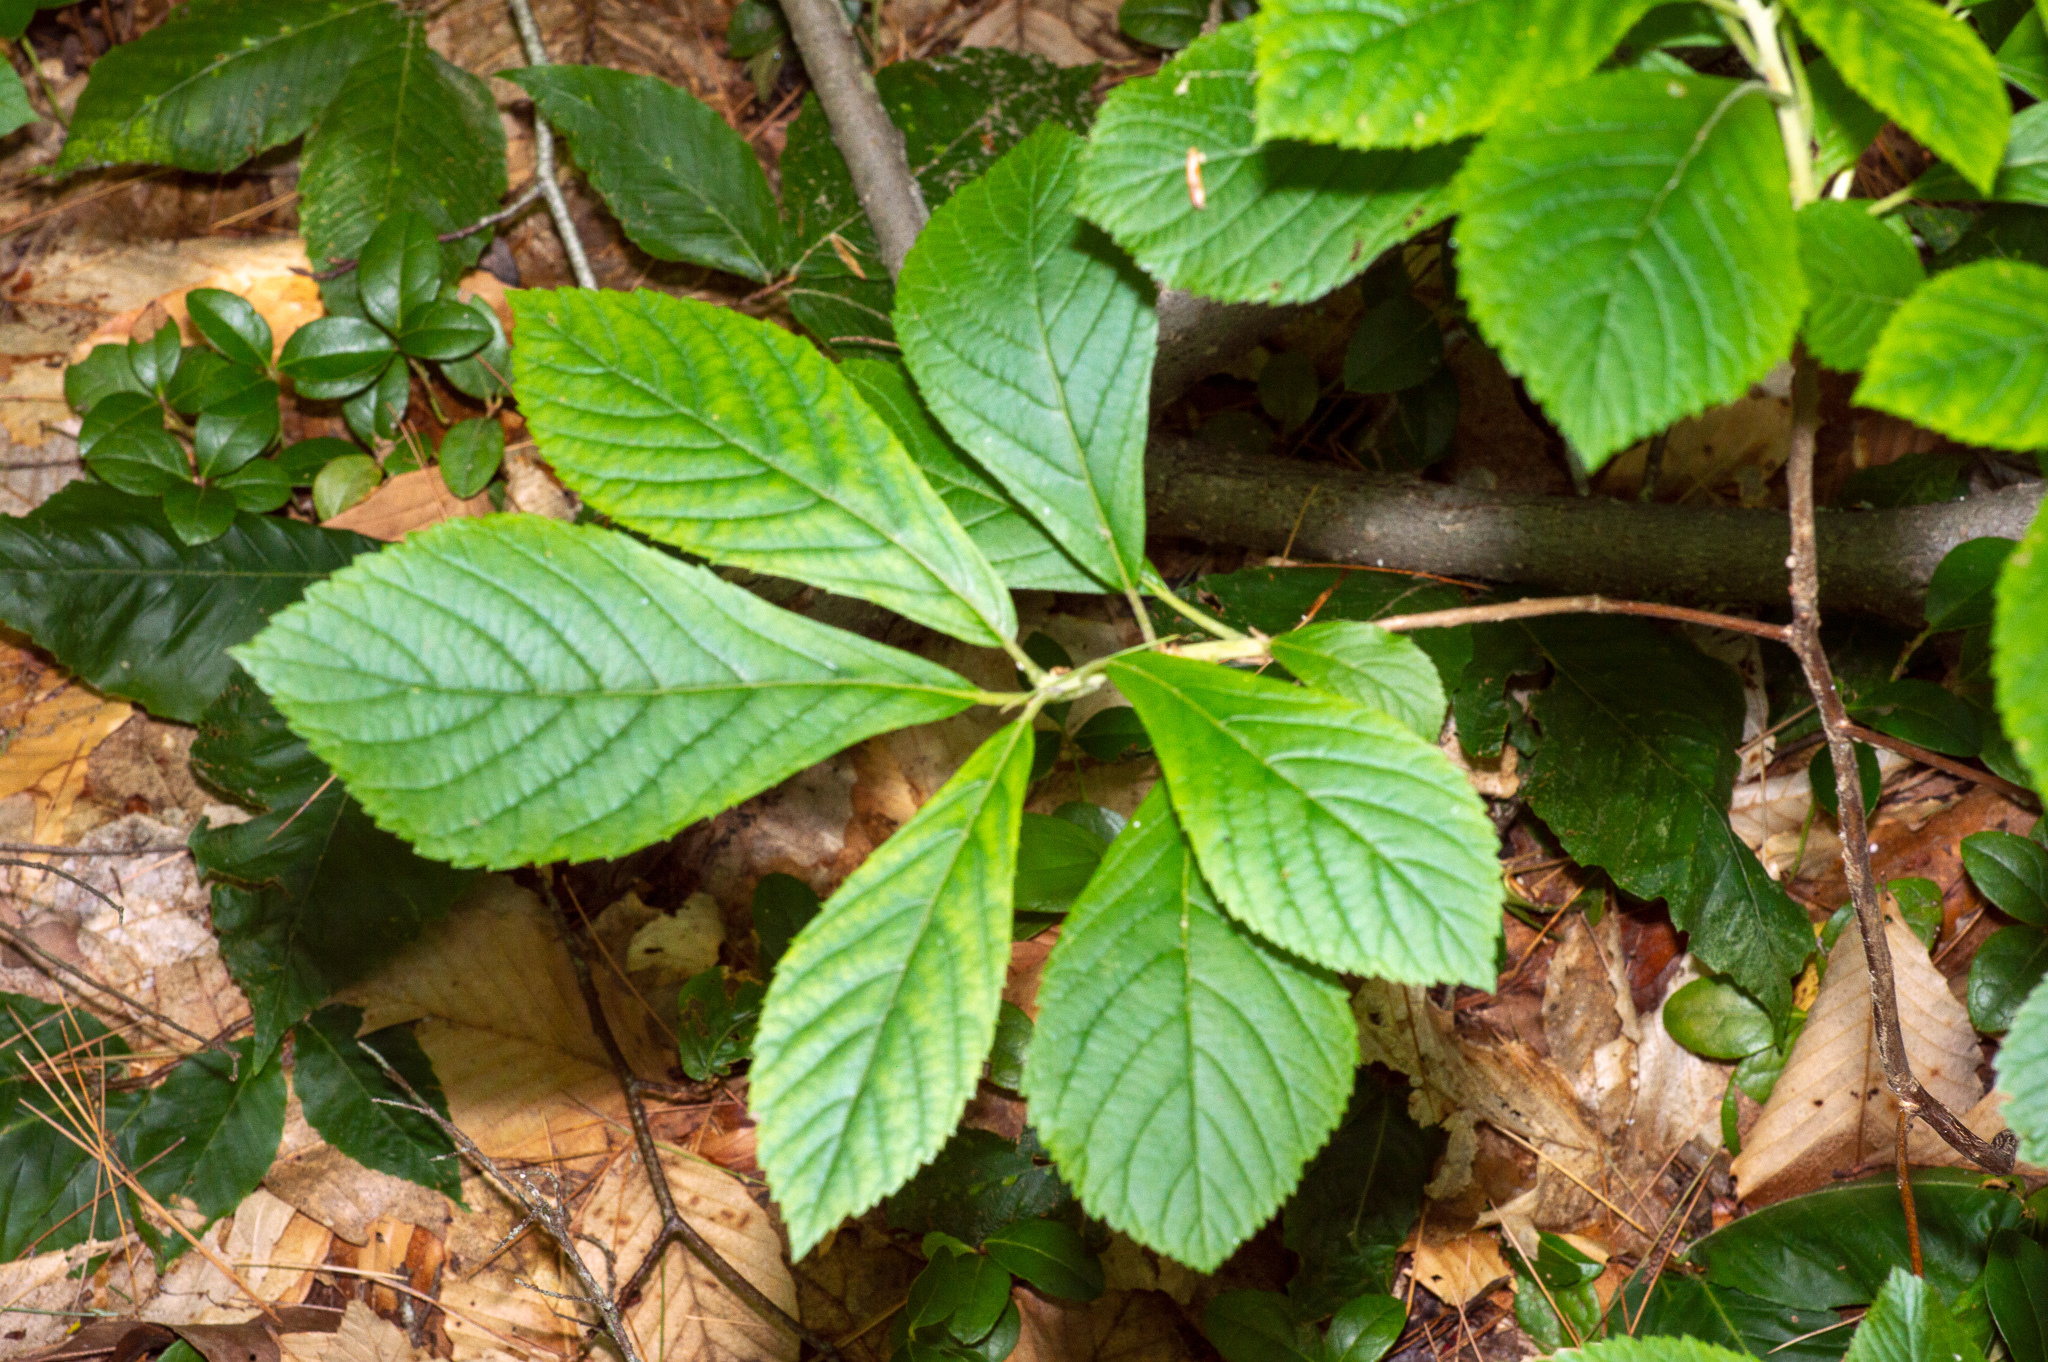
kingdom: Plantae
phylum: Tracheophyta
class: Magnoliopsida
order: Ericales
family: Clethraceae
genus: Clethra
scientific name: Clethra alnifolia
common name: Sweet pepperbush
